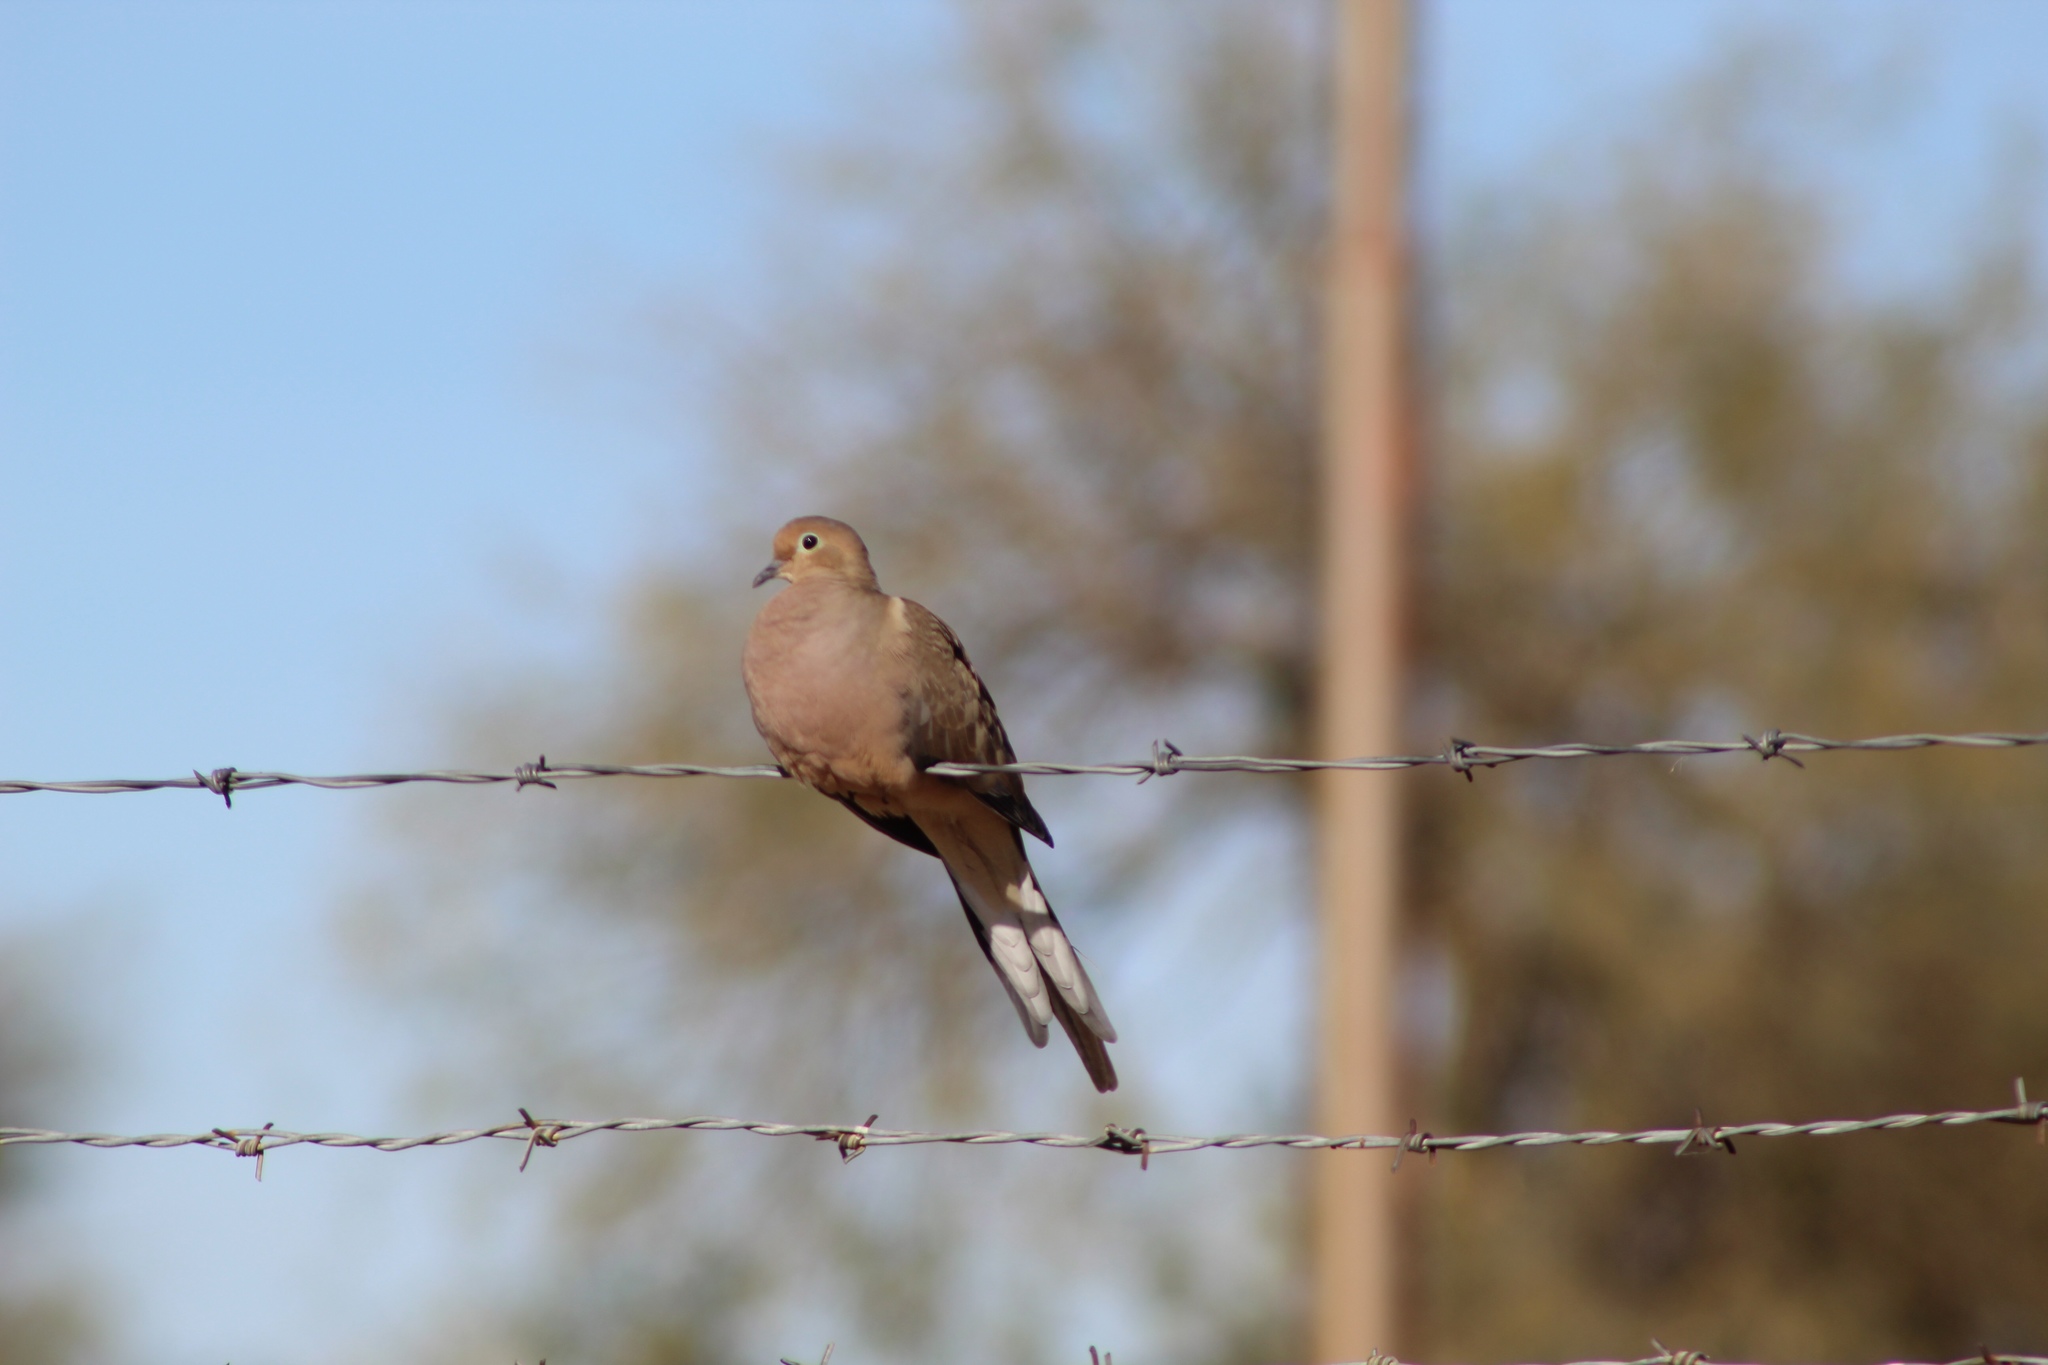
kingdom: Animalia
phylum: Chordata
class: Aves
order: Columbiformes
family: Columbidae
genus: Zenaida
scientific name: Zenaida macroura
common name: Mourning dove
